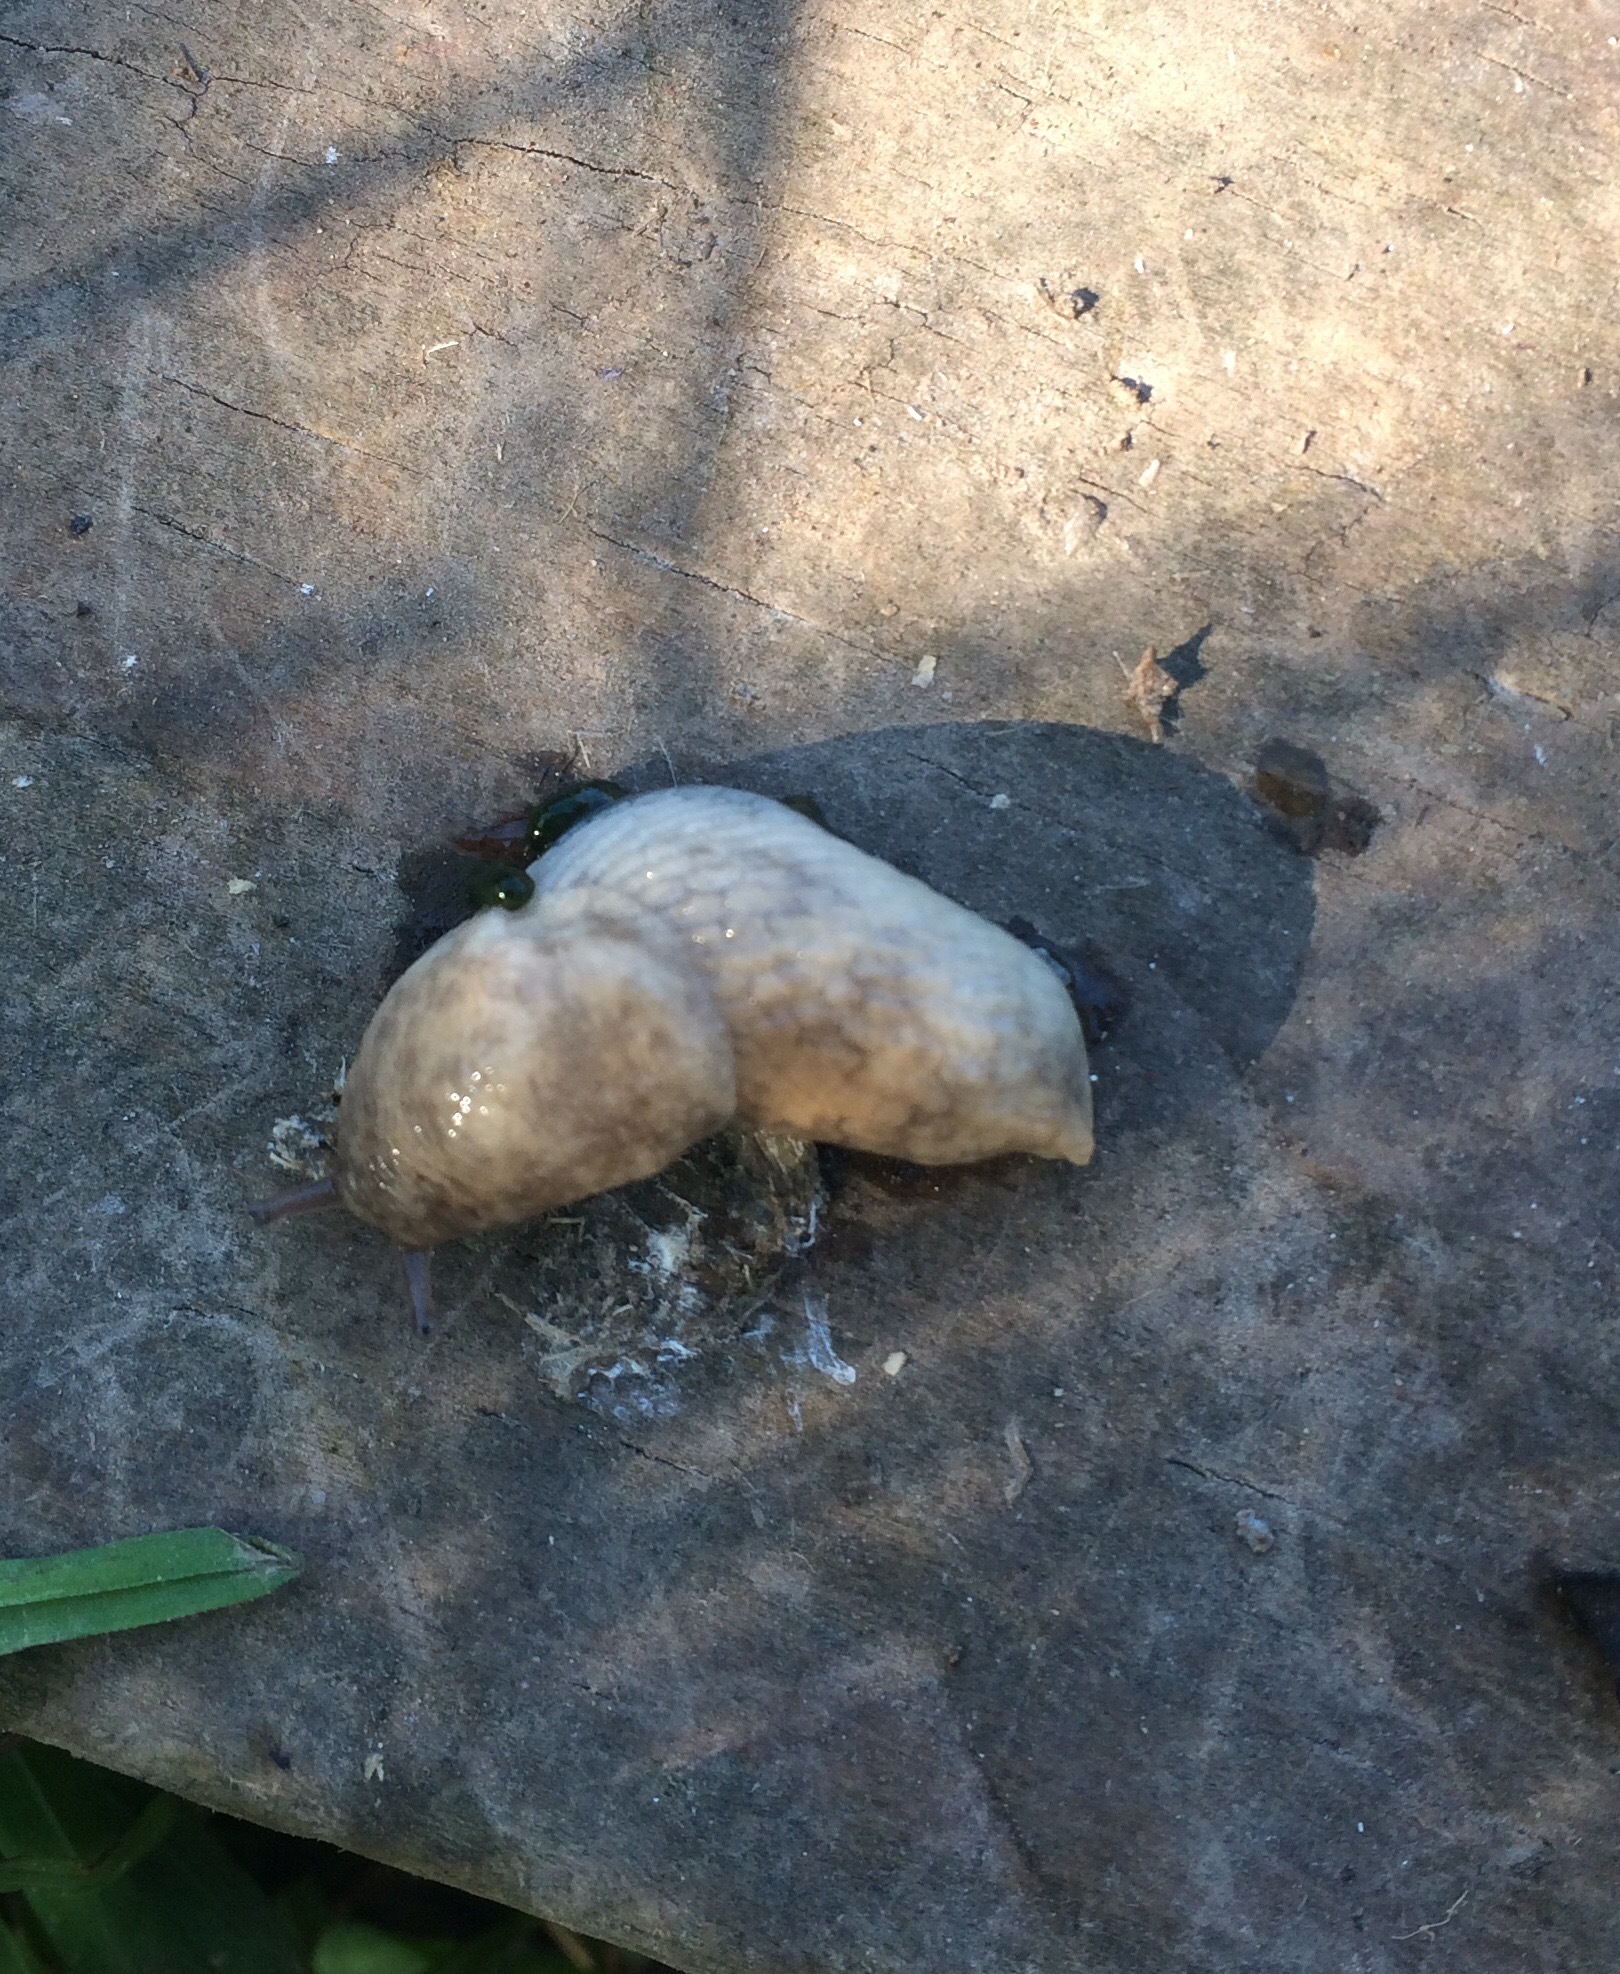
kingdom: Animalia
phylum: Mollusca
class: Gastropoda
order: Stylommatophora
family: Agriolimacidae
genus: Deroceras
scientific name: Deroceras reticulatum
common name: Gray field slug
